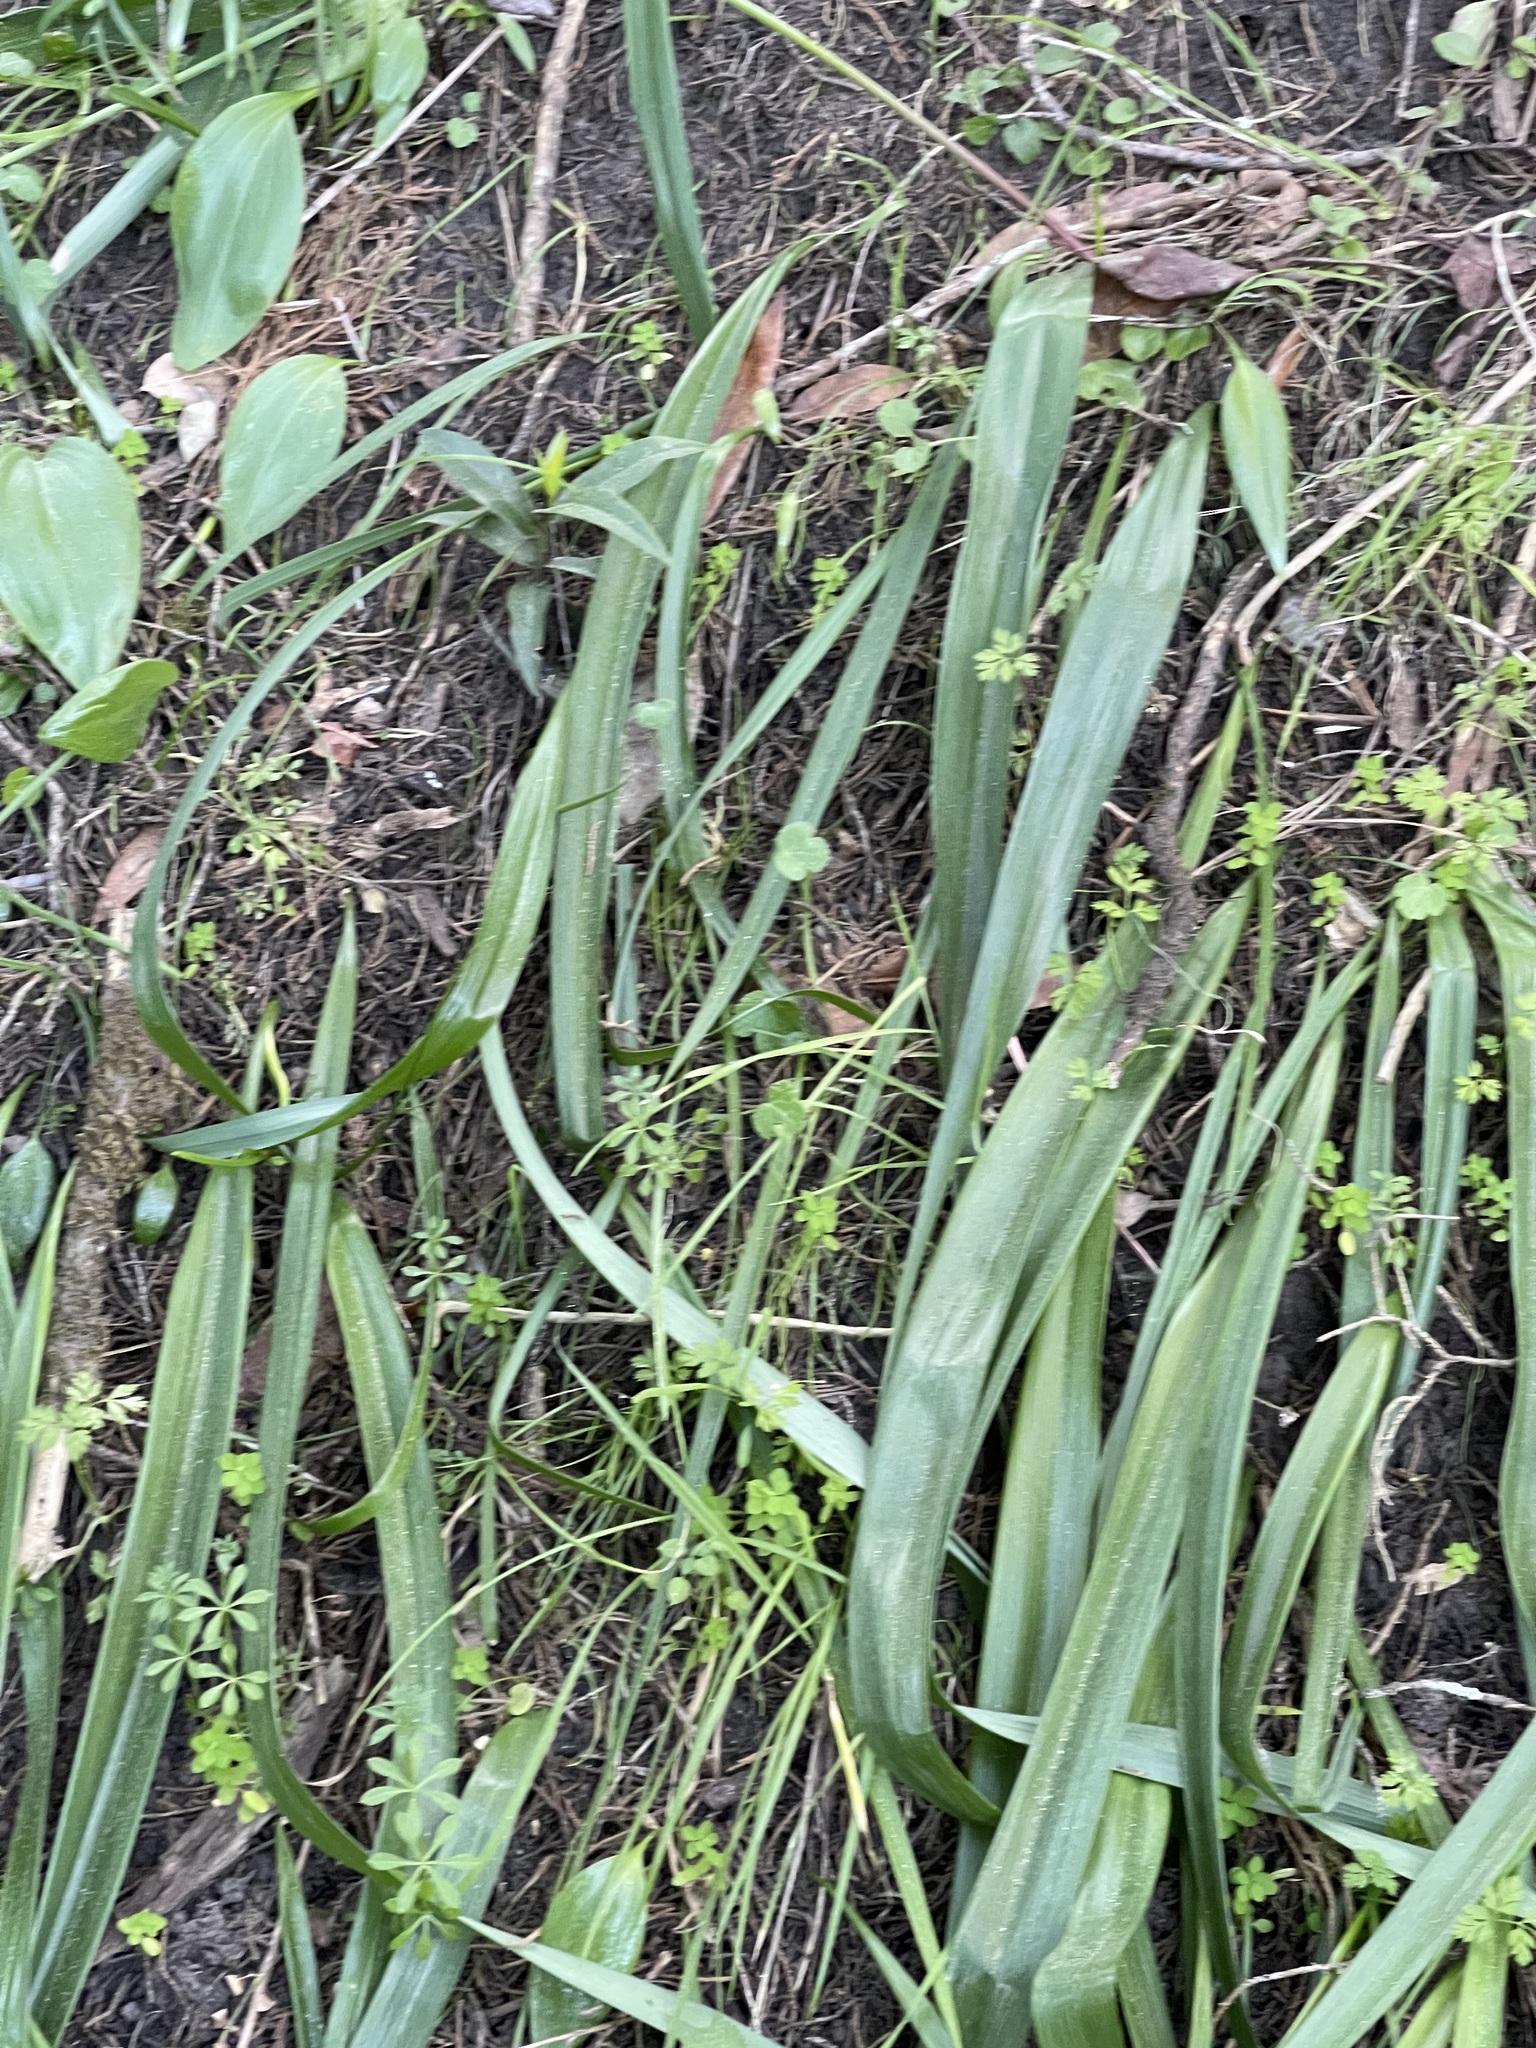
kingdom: Plantae
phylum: Tracheophyta
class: Liliopsida
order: Liliales
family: Liliaceae
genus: Fritillaria
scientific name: Fritillaria affinis
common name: Ojai fritillary
